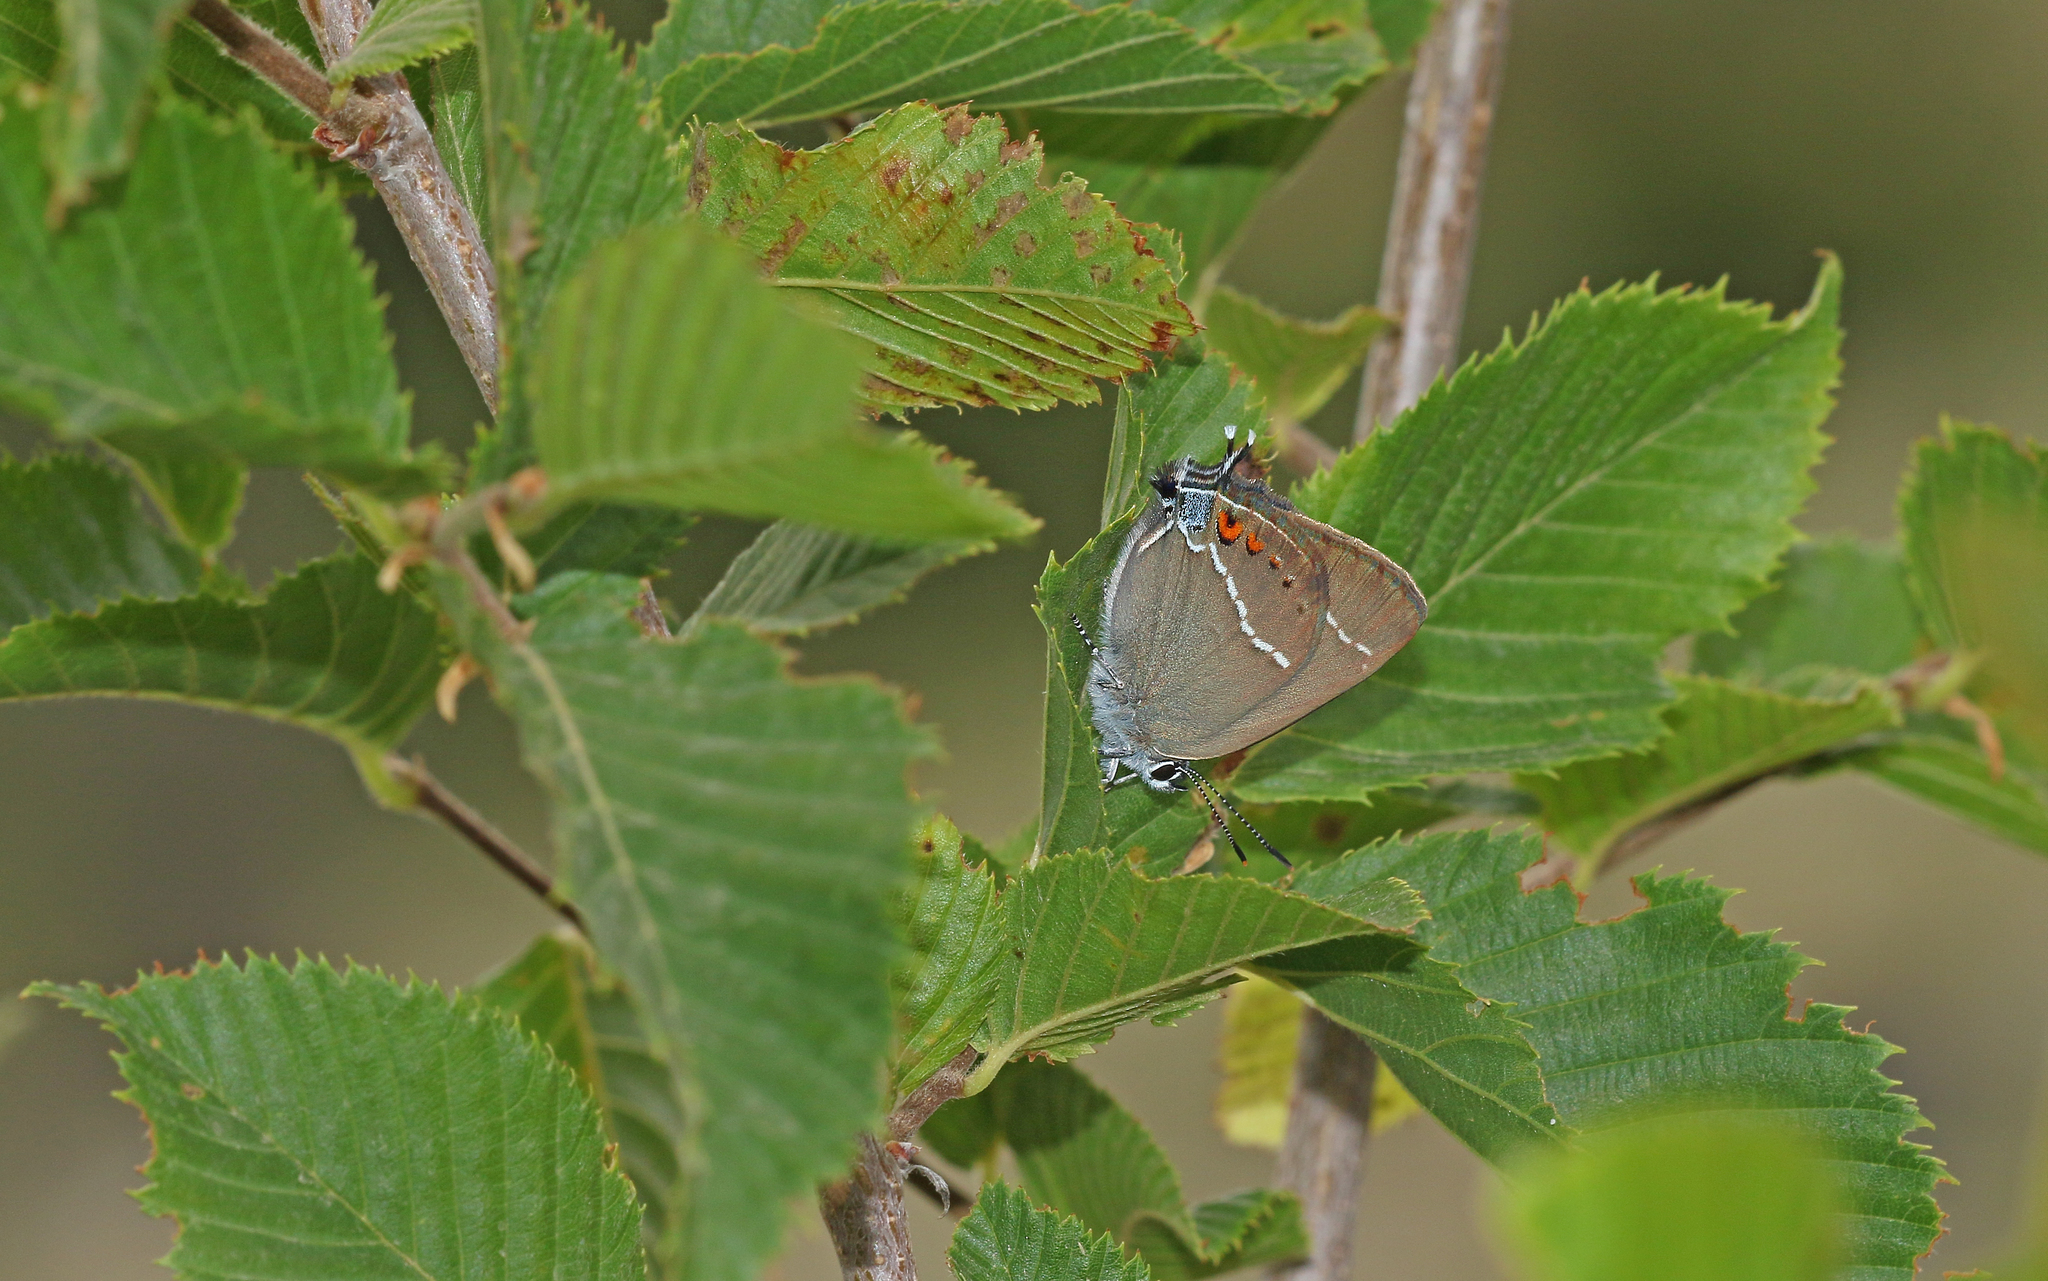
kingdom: Animalia
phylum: Arthropoda
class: Insecta
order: Lepidoptera
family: Lycaenidae
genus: Tuttiola
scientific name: Tuttiola spini
